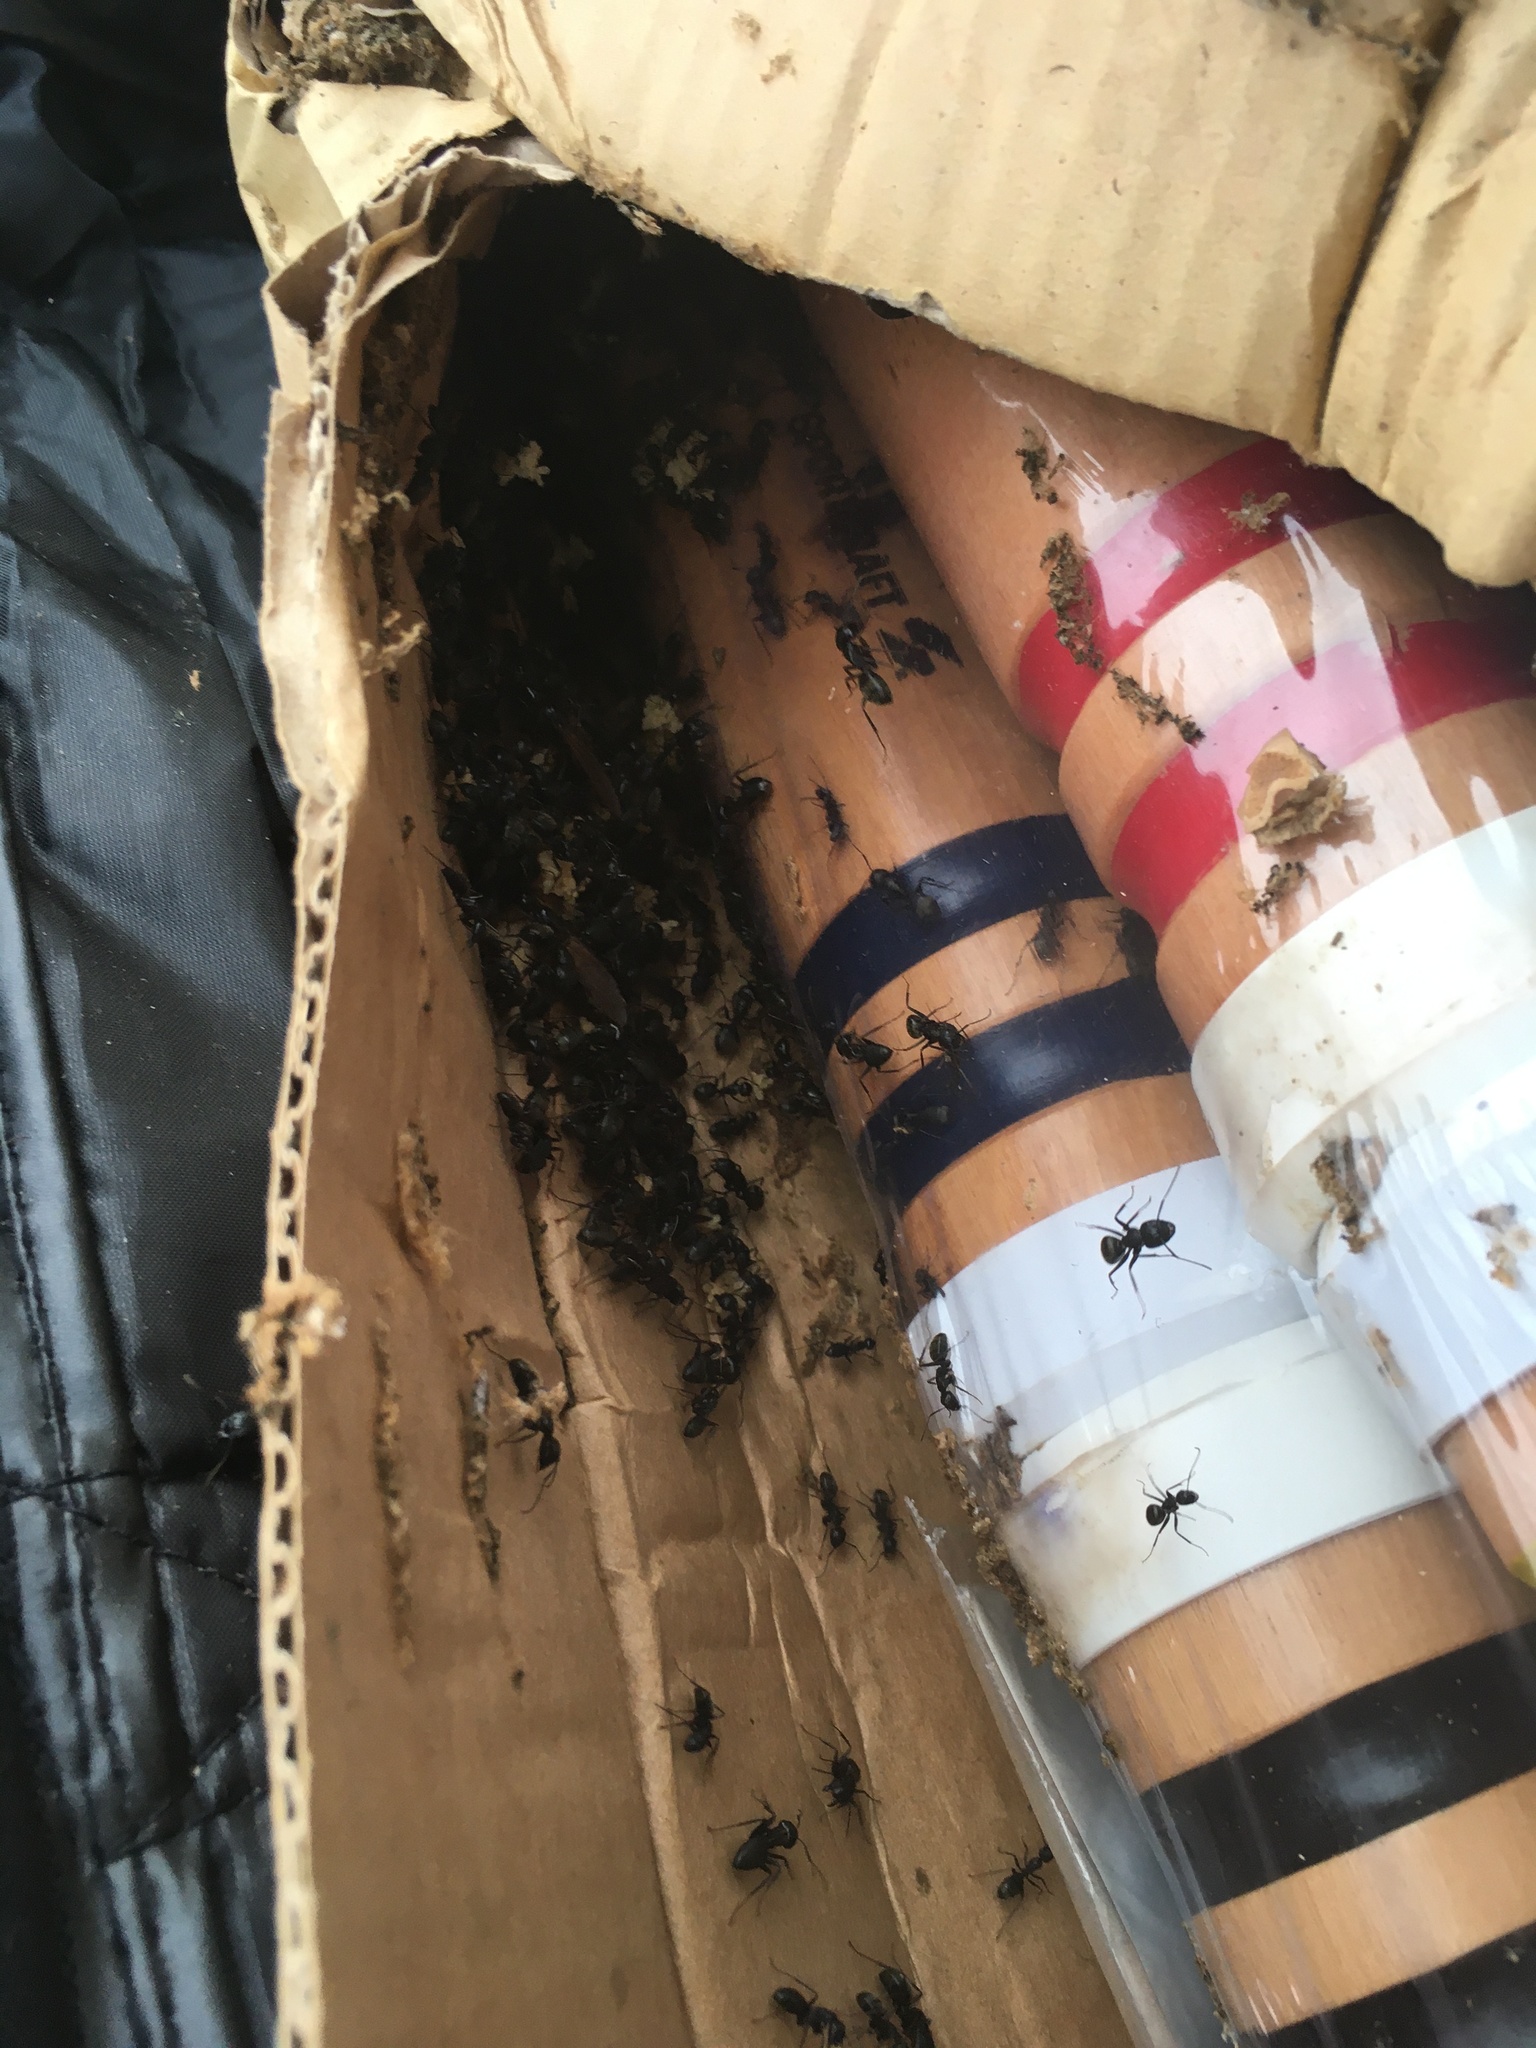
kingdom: Animalia
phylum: Arthropoda
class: Insecta
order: Hymenoptera
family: Formicidae
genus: Camponotus
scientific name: Camponotus pennsylvanicus
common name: Black carpenter ant
